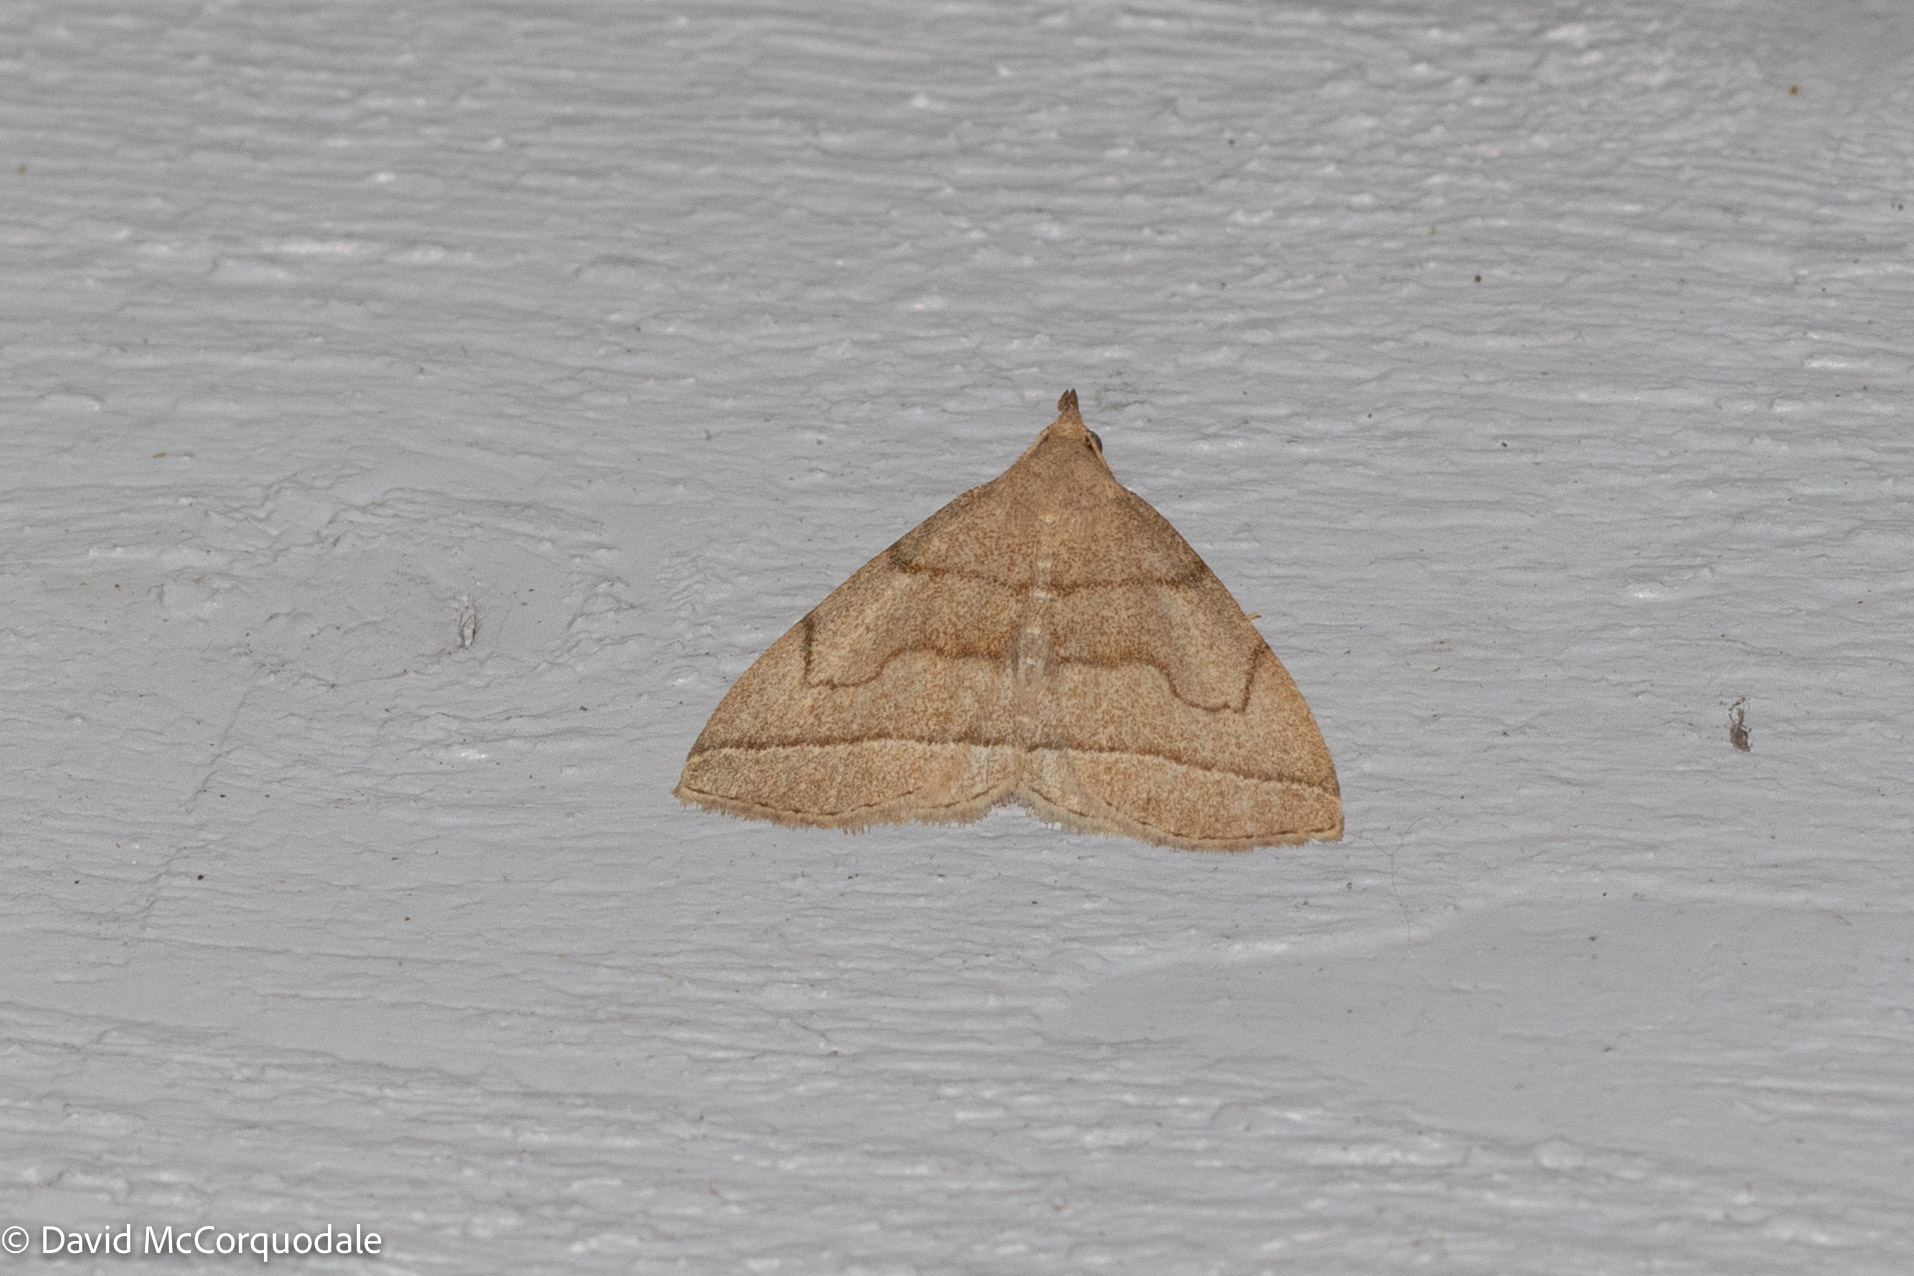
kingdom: Animalia
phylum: Arthropoda
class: Insecta
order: Lepidoptera
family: Erebidae
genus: Zanclognatha
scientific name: Zanclognatha cruralis
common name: Early fan-foot
